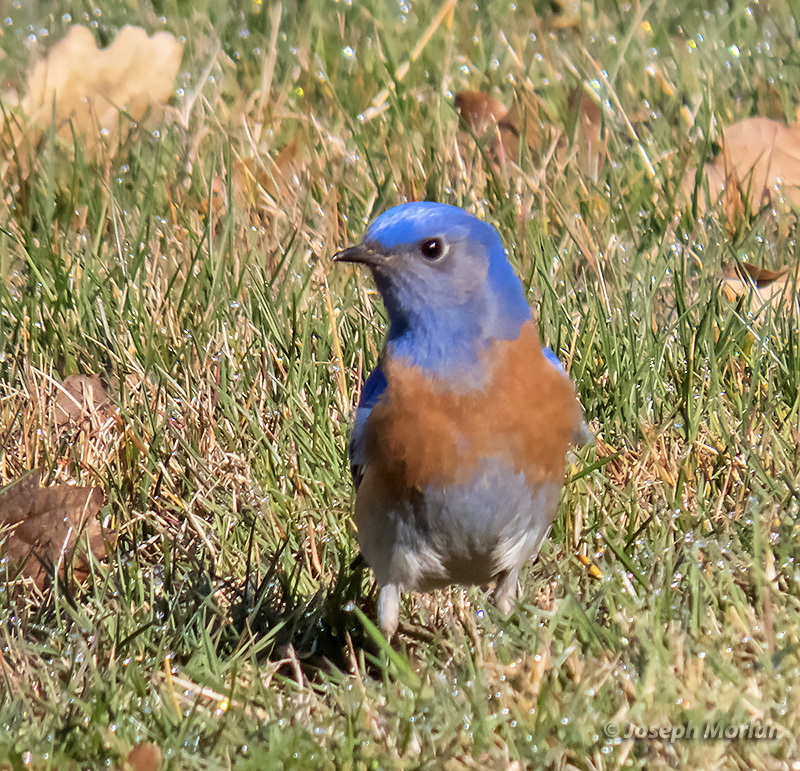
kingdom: Animalia
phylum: Chordata
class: Aves
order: Passeriformes
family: Turdidae
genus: Sialia
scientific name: Sialia mexicana
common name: Western bluebird
